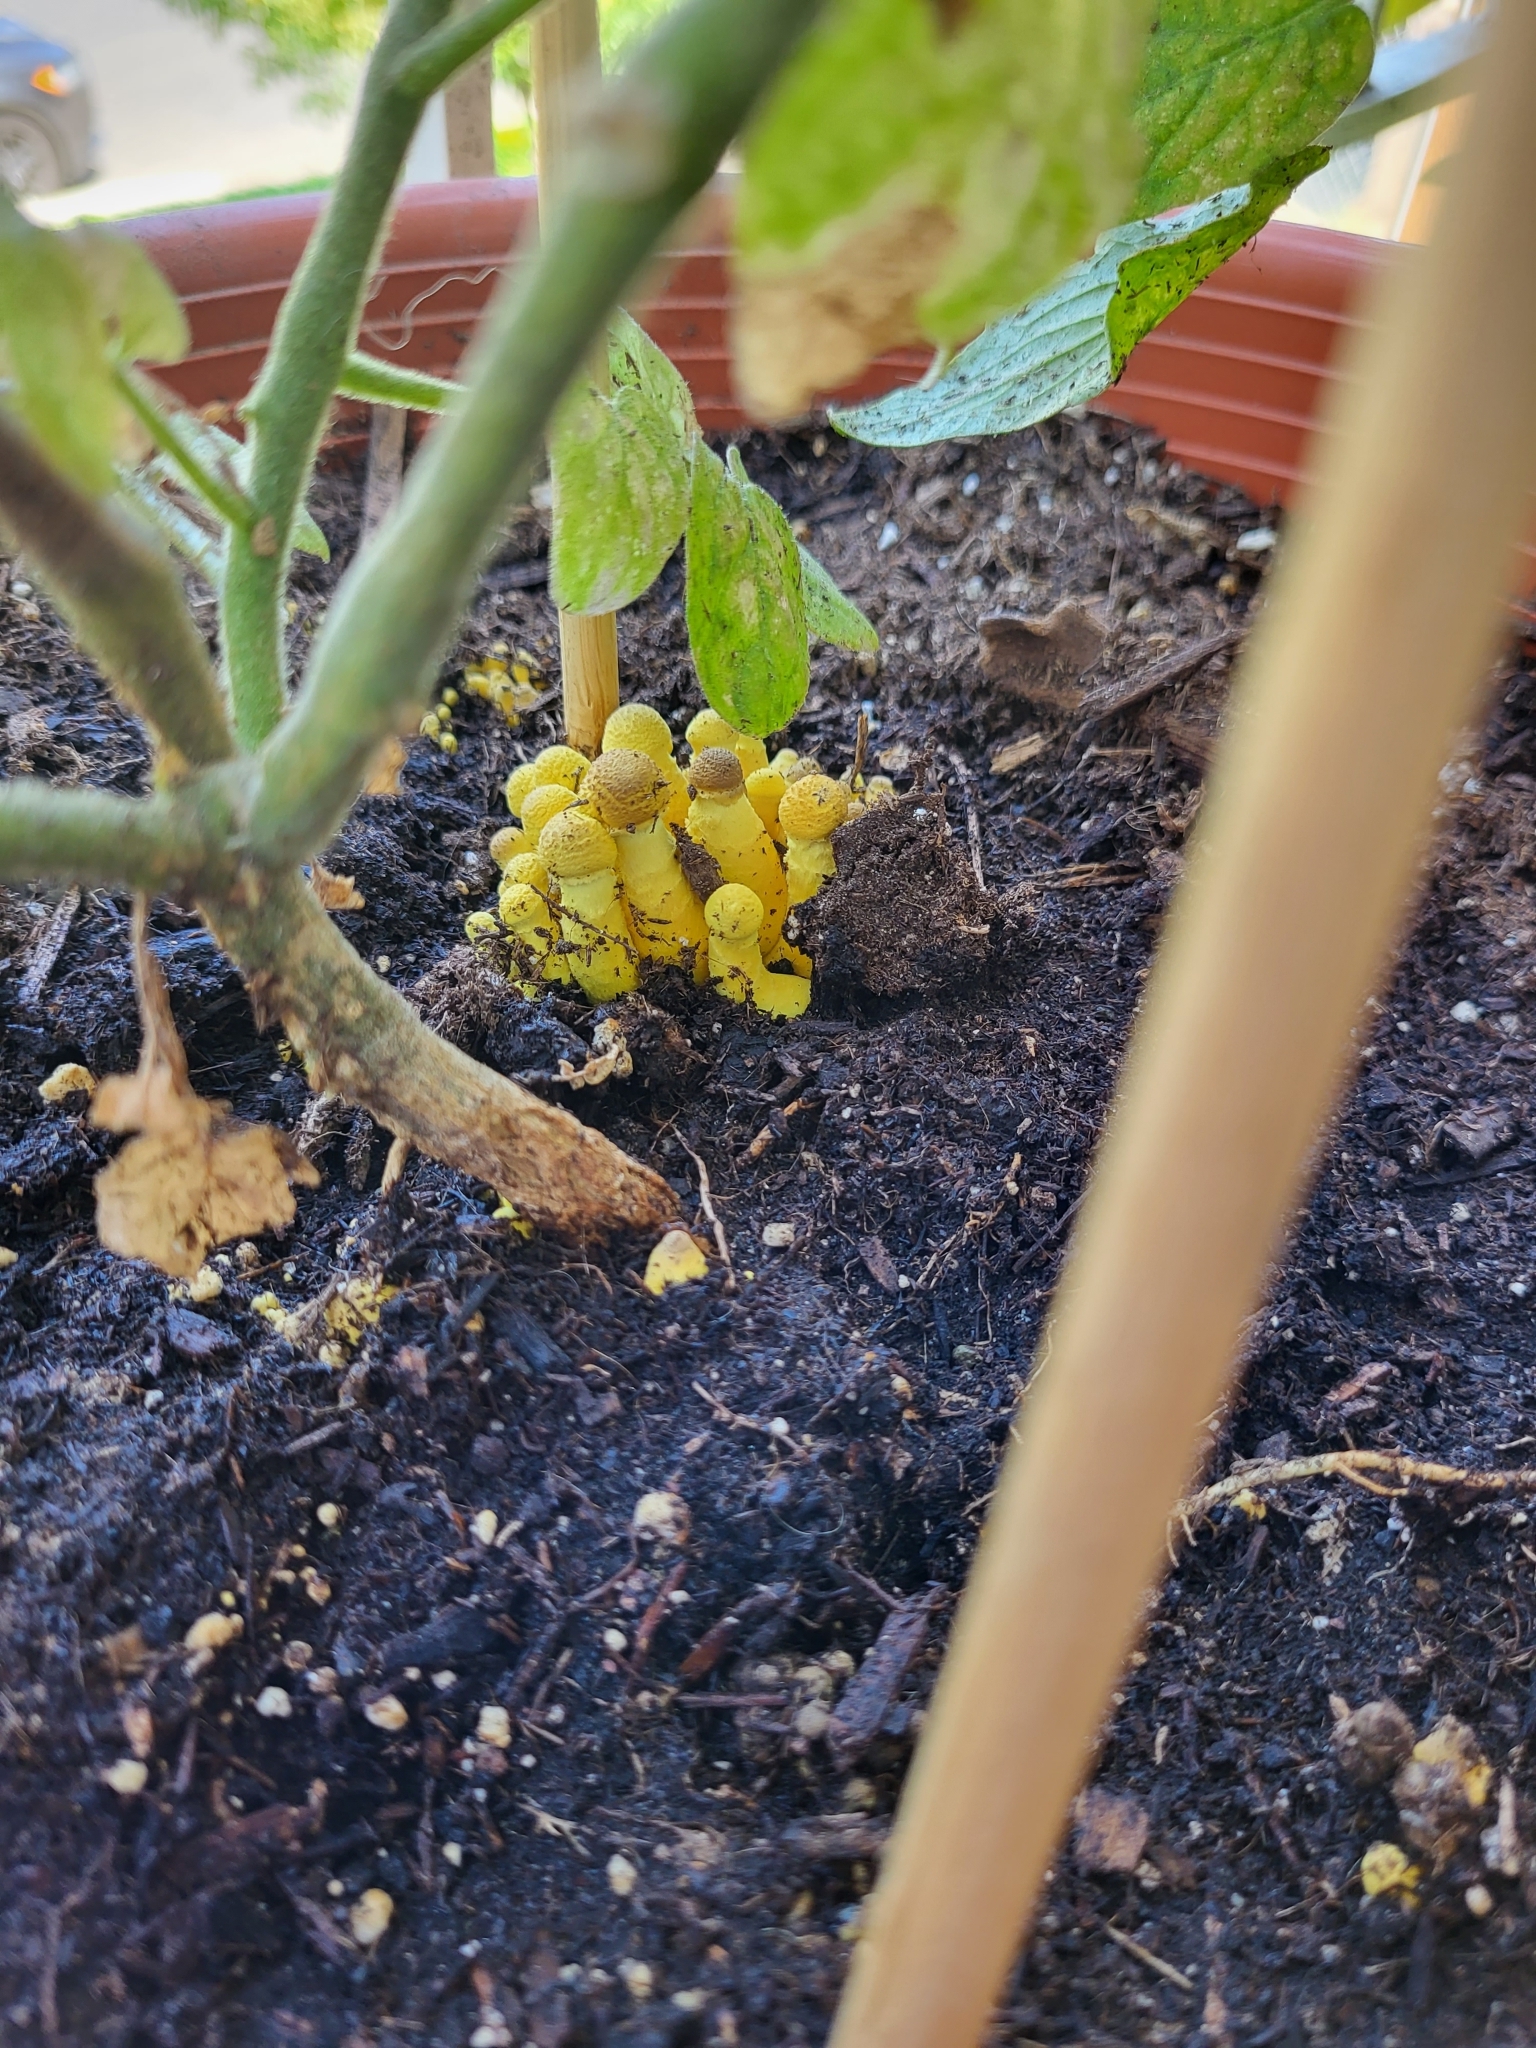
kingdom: Fungi
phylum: Basidiomycota
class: Agaricomycetes
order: Agaricales
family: Agaricaceae
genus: Leucocoprinus
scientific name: Leucocoprinus birnbaumii
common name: Plantpot dapperling
